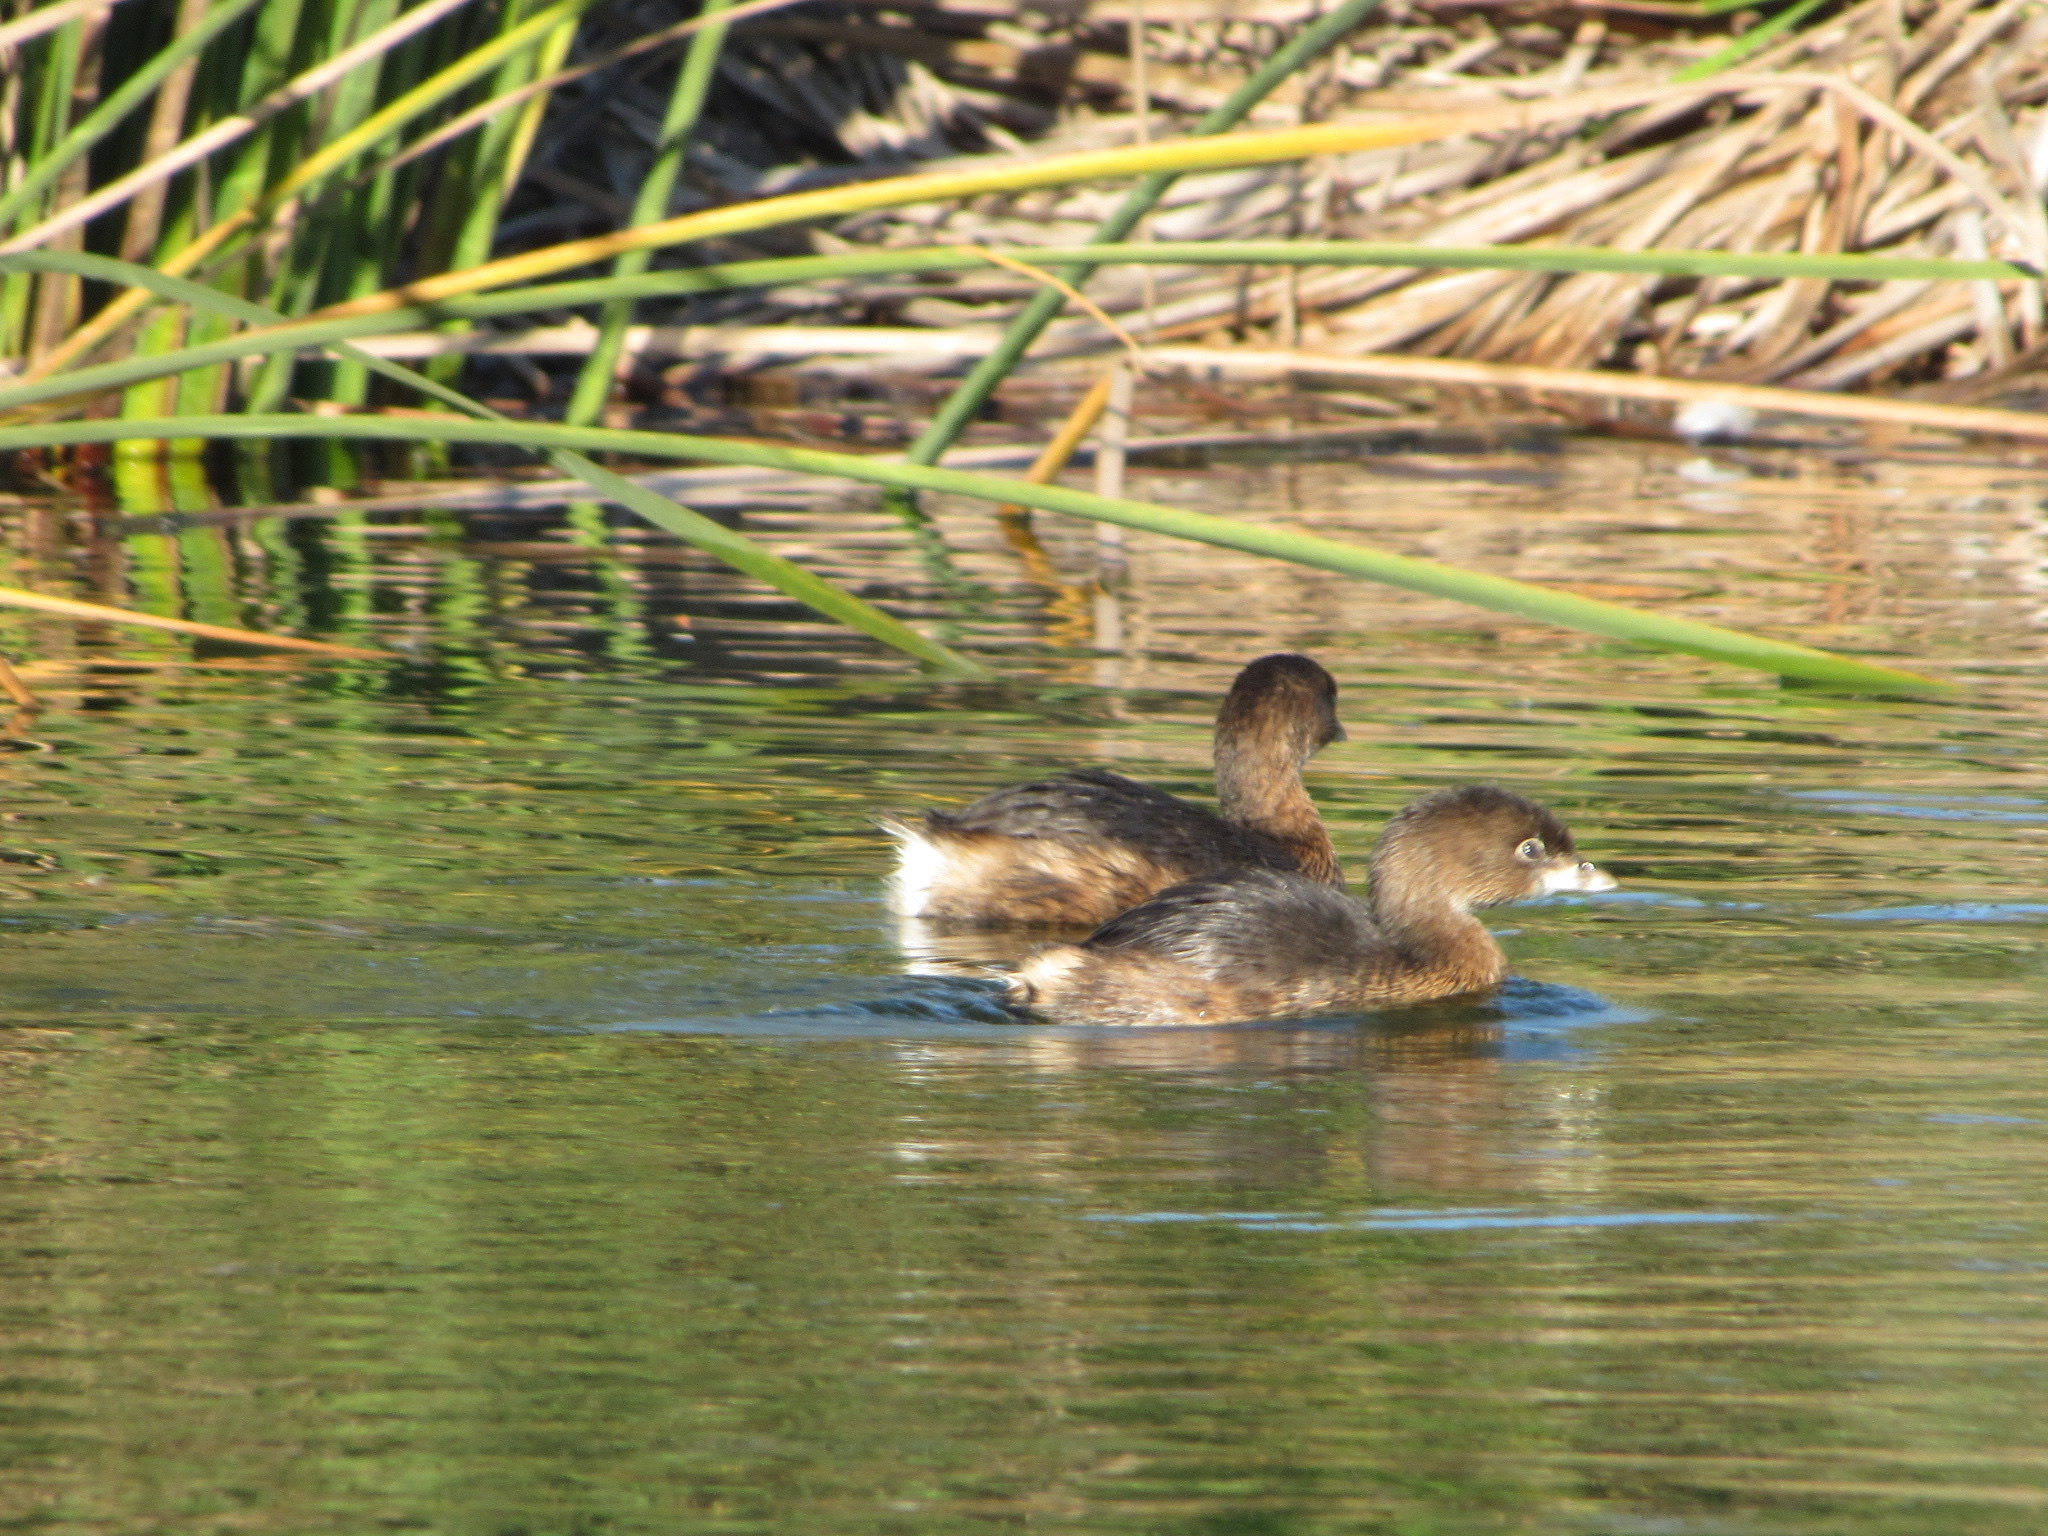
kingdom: Animalia
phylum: Chordata
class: Aves
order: Podicipediformes
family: Podicipedidae
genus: Podilymbus
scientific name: Podilymbus podiceps
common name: Pied-billed grebe
